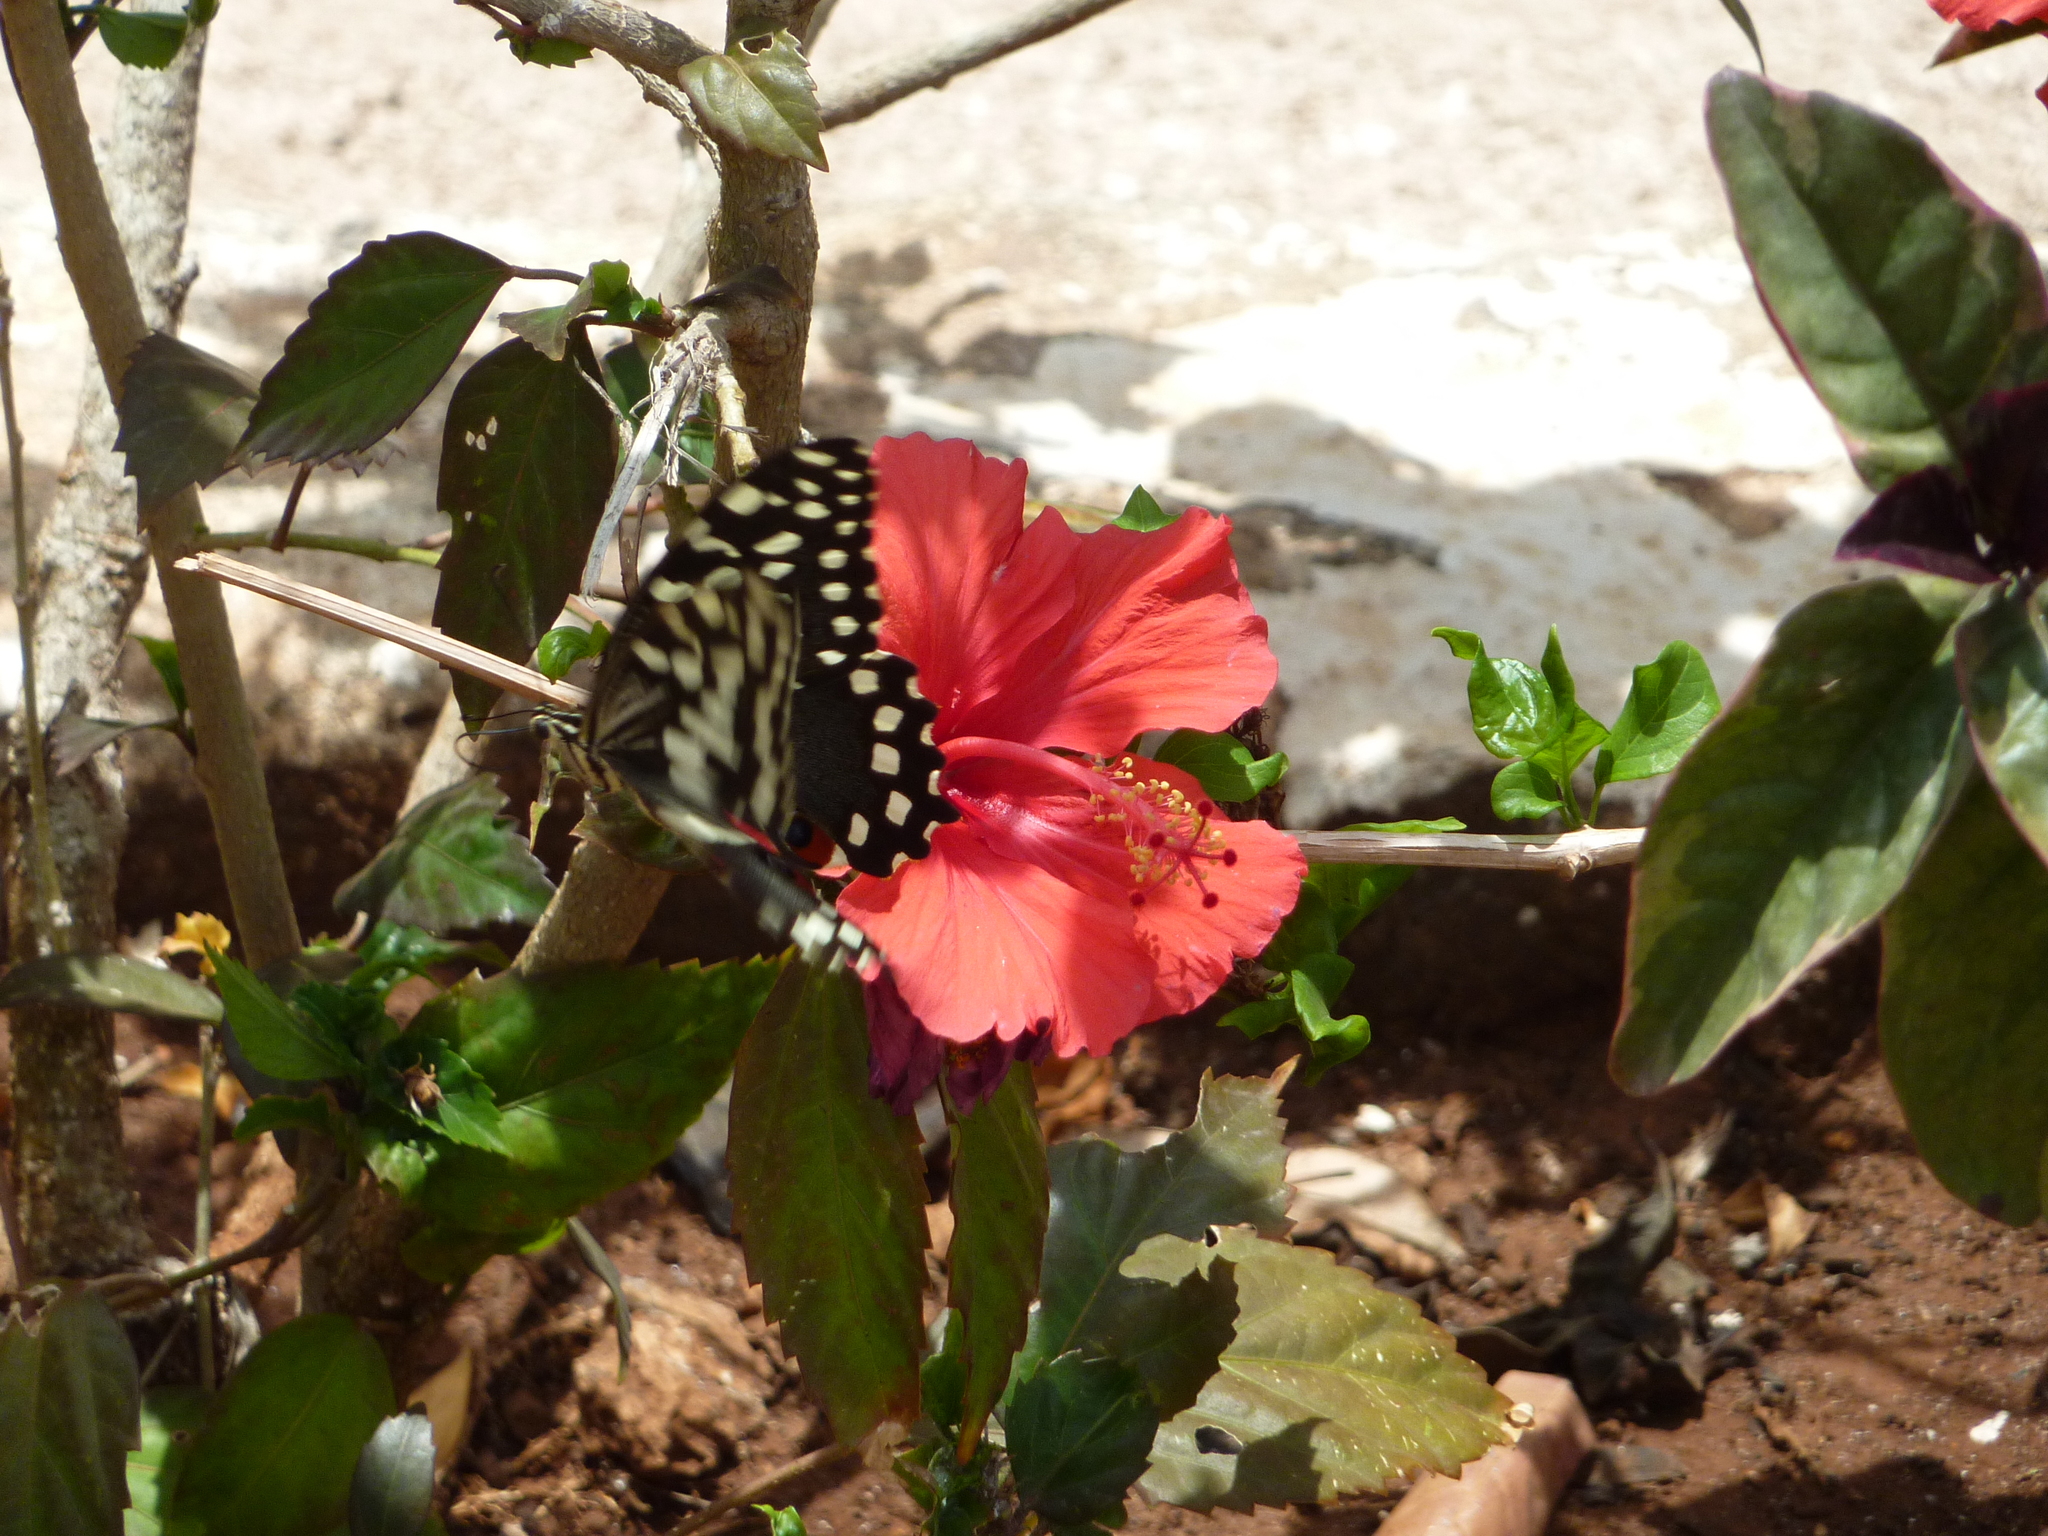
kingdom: Animalia
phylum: Arthropoda
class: Insecta
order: Lepidoptera
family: Papilionidae
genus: Papilio
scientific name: Papilio demodocus
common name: Christmas butterfly
